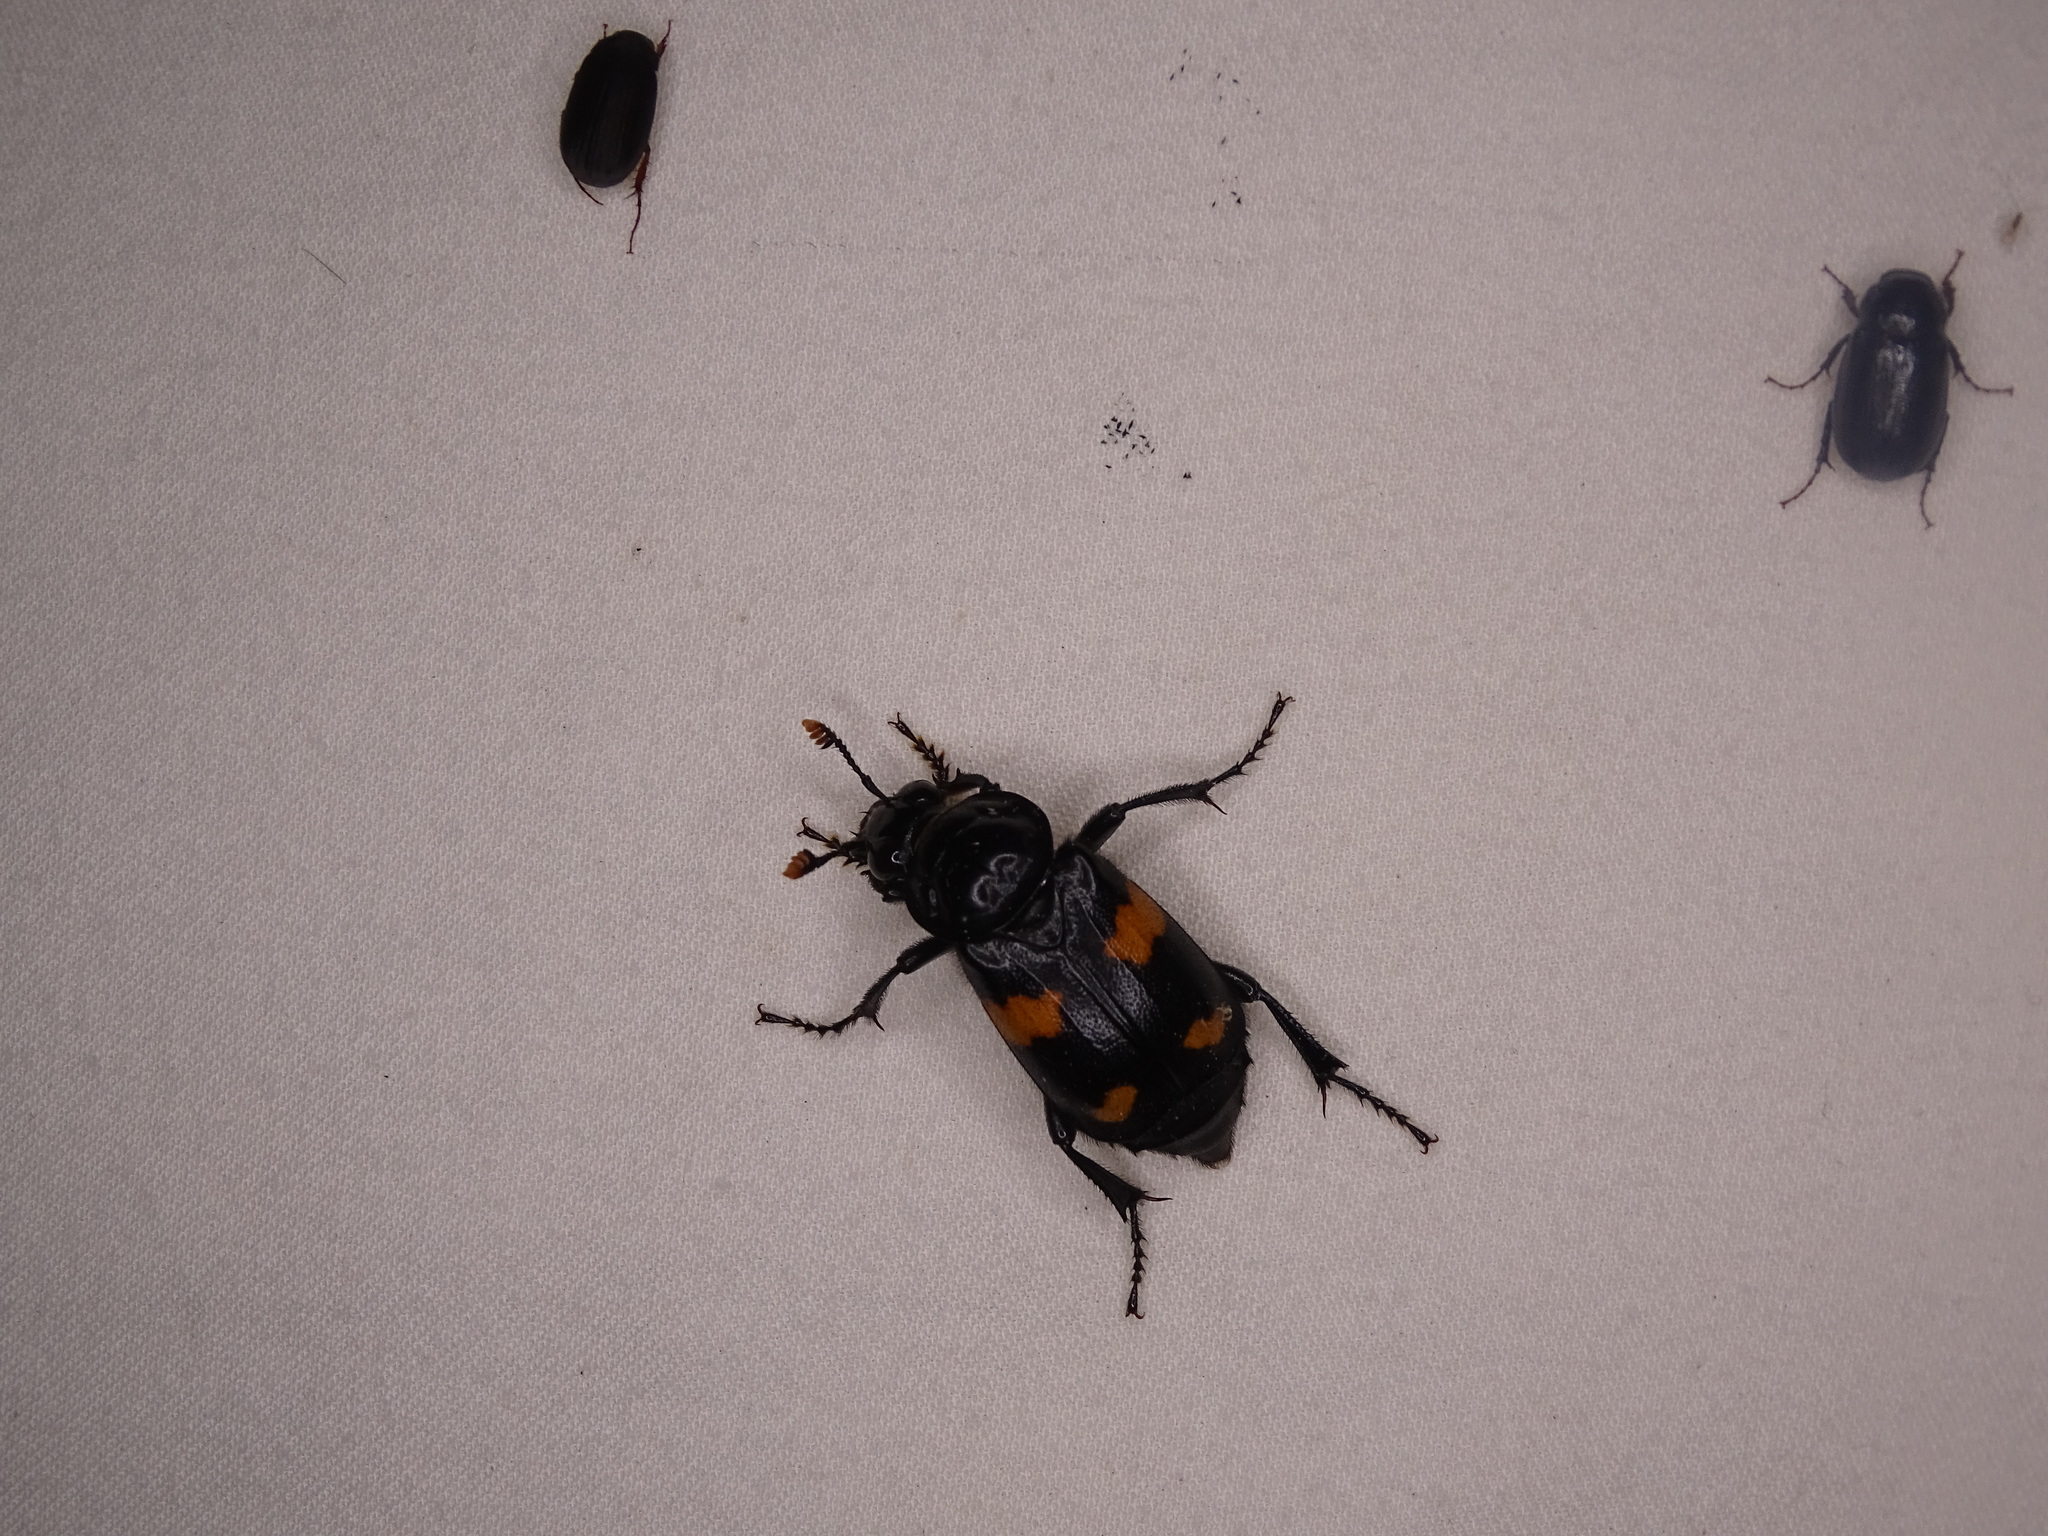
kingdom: Animalia
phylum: Arthropoda
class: Insecta
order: Coleoptera
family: Staphylinidae
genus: Nicrophorus
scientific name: Nicrophorus orbicollis
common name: Roundneck sexton beetle
